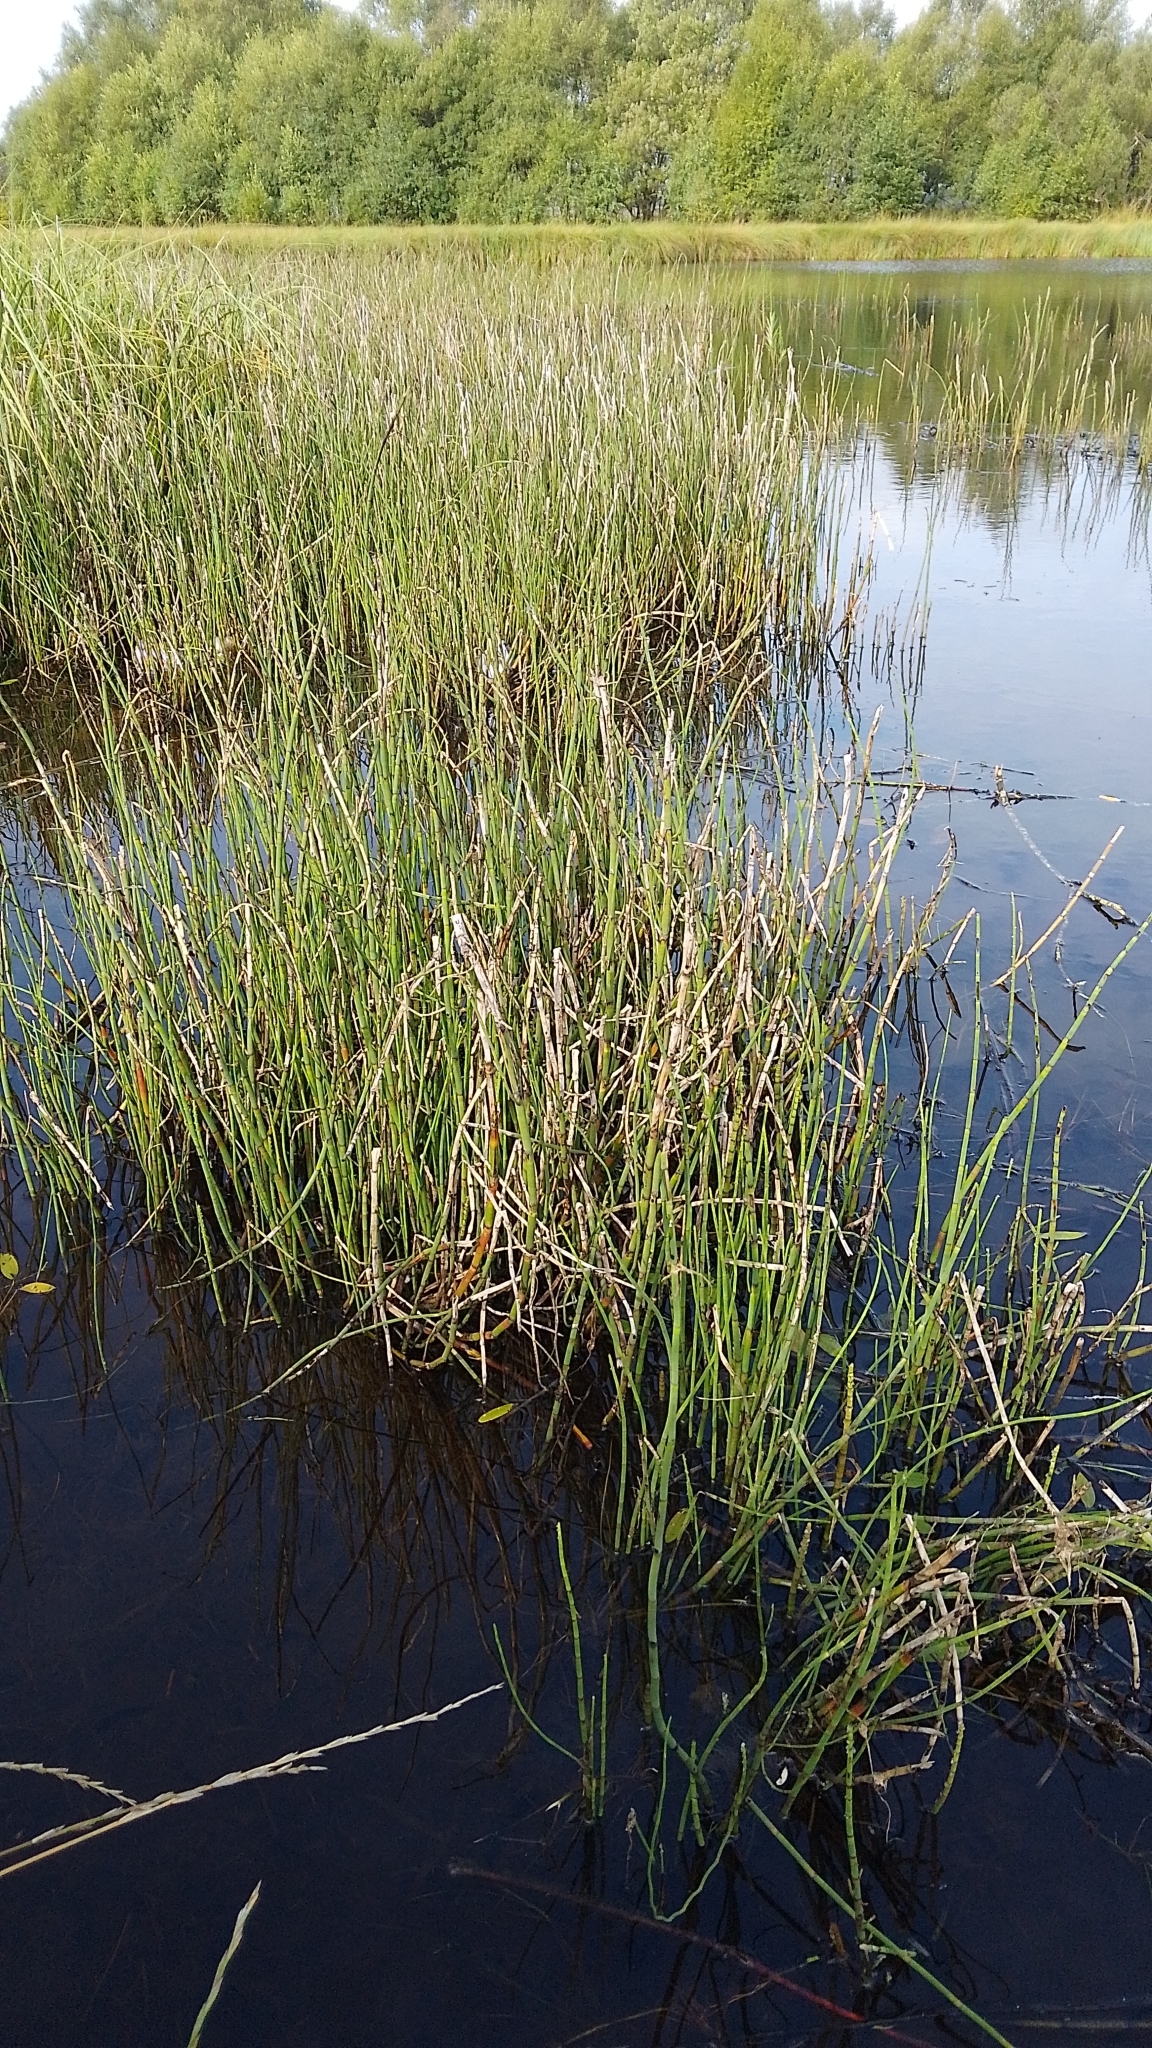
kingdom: Plantae
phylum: Tracheophyta
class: Polypodiopsida
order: Equisetales
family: Equisetaceae
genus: Equisetum
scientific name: Equisetum fluviatile
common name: Water horsetail
